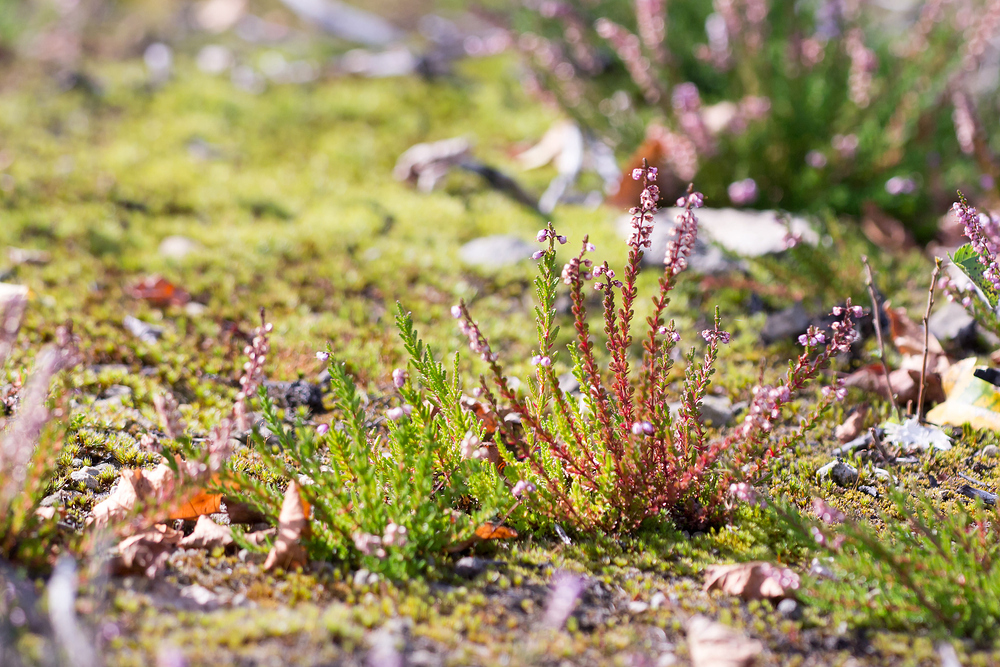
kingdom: Plantae
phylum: Tracheophyta
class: Magnoliopsida
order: Ericales
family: Ericaceae
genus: Calluna
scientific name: Calluna vulgaris
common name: Heather
